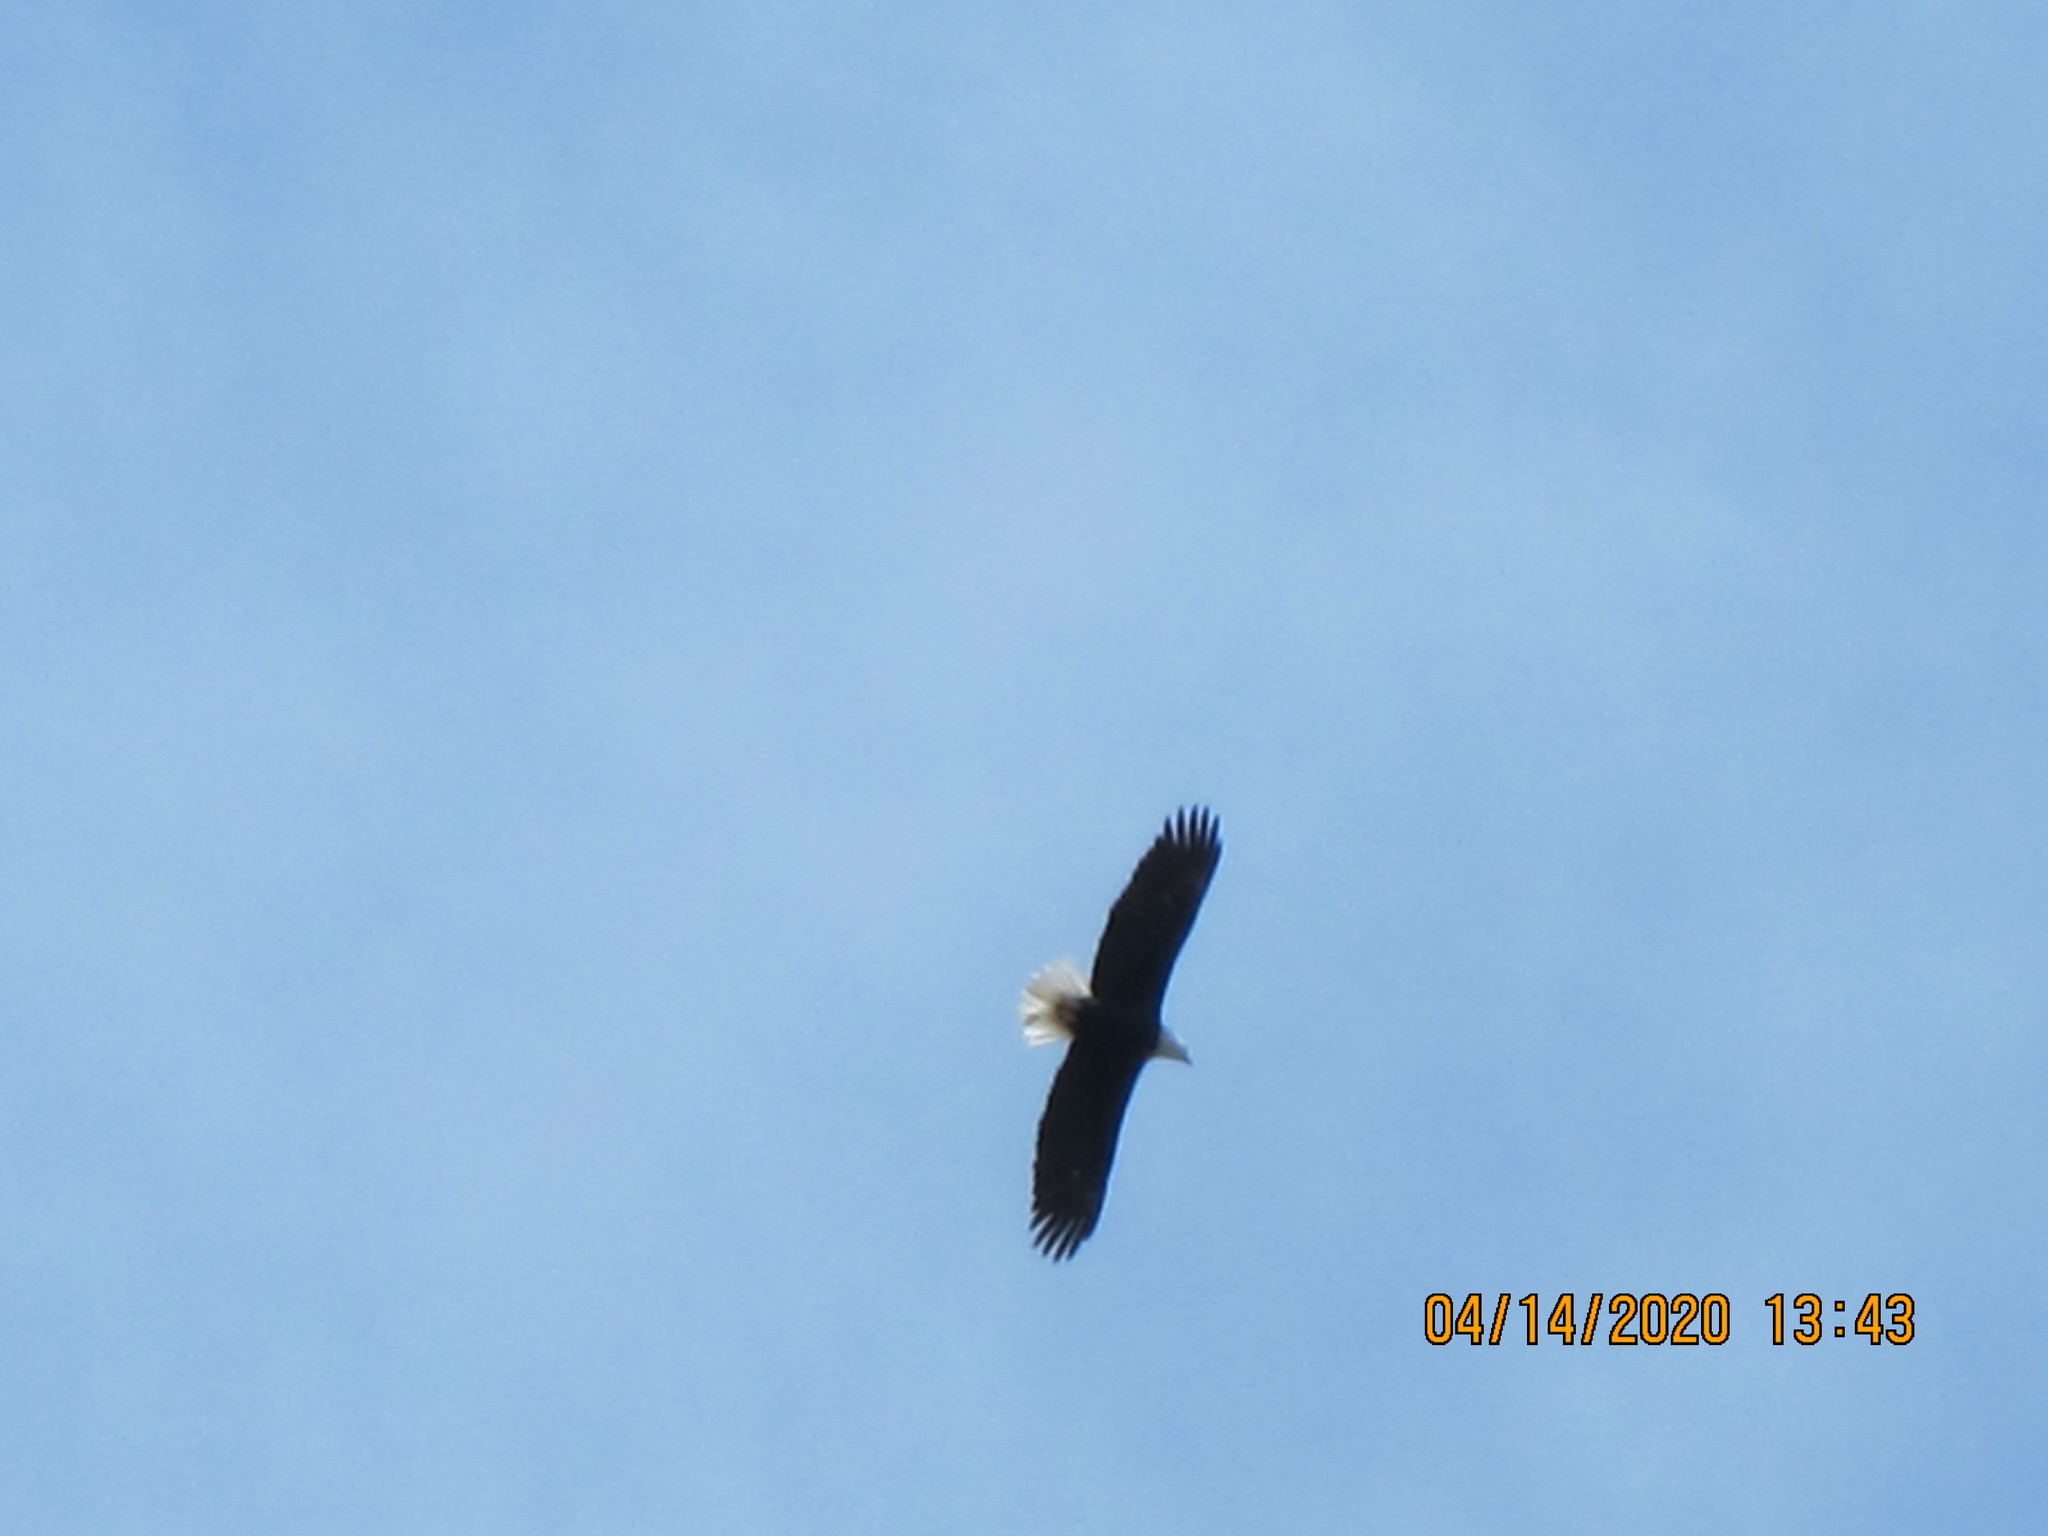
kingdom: Animalia
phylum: Chordata
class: Aves
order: Accipitriformes
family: Accipitridae
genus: Haliaeetus
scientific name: Haliaeetus leucocephalus
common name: Bald eagle
